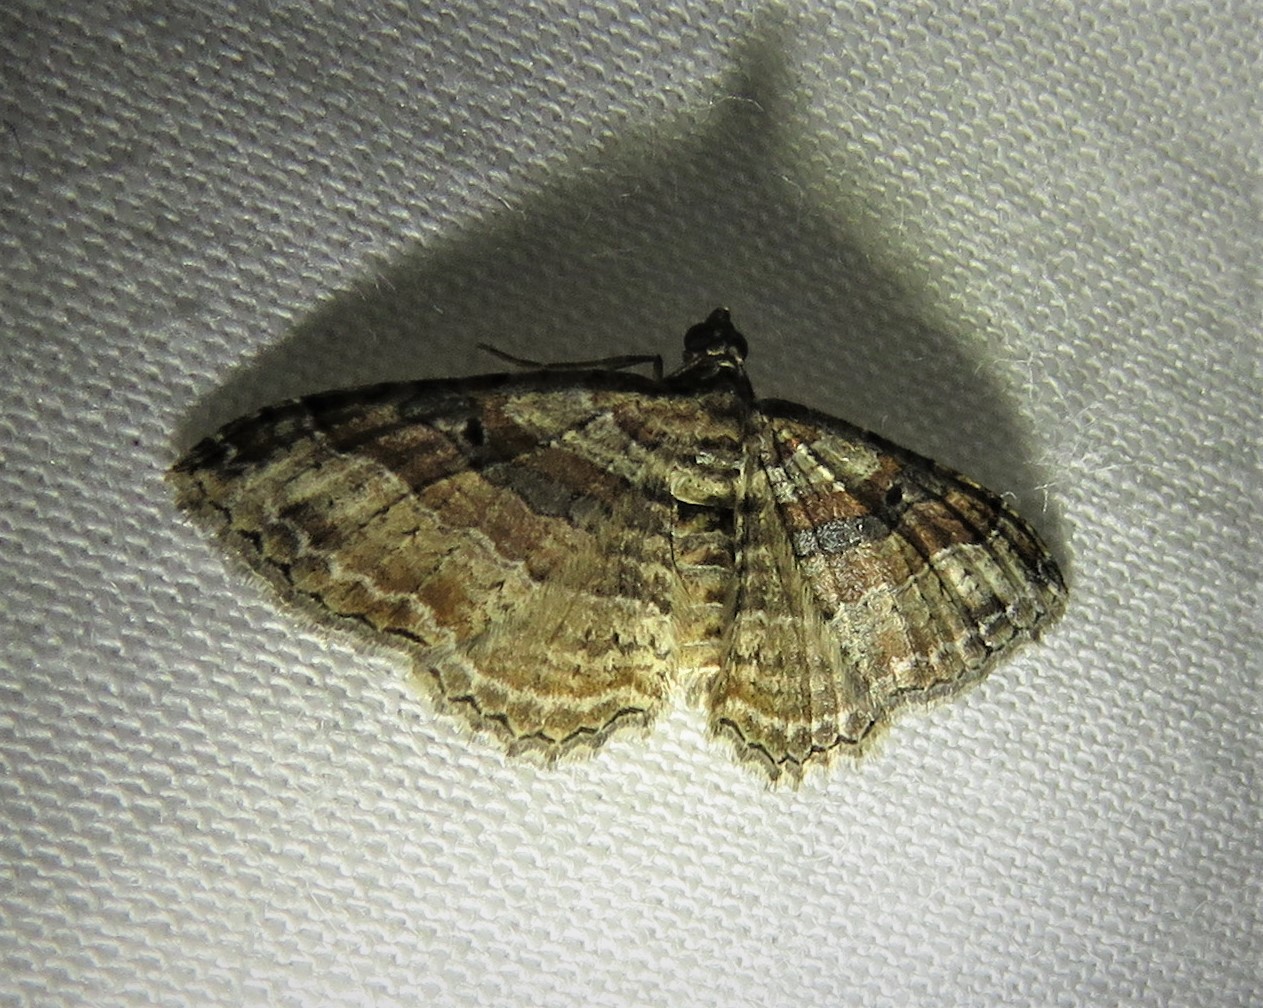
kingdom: Animalia
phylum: Arthropoda
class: Insecta
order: Lepidoptera
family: Geometridae
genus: Costaconvexa
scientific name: Costaconvexa centrostrigaria
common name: Bent-line carpet
